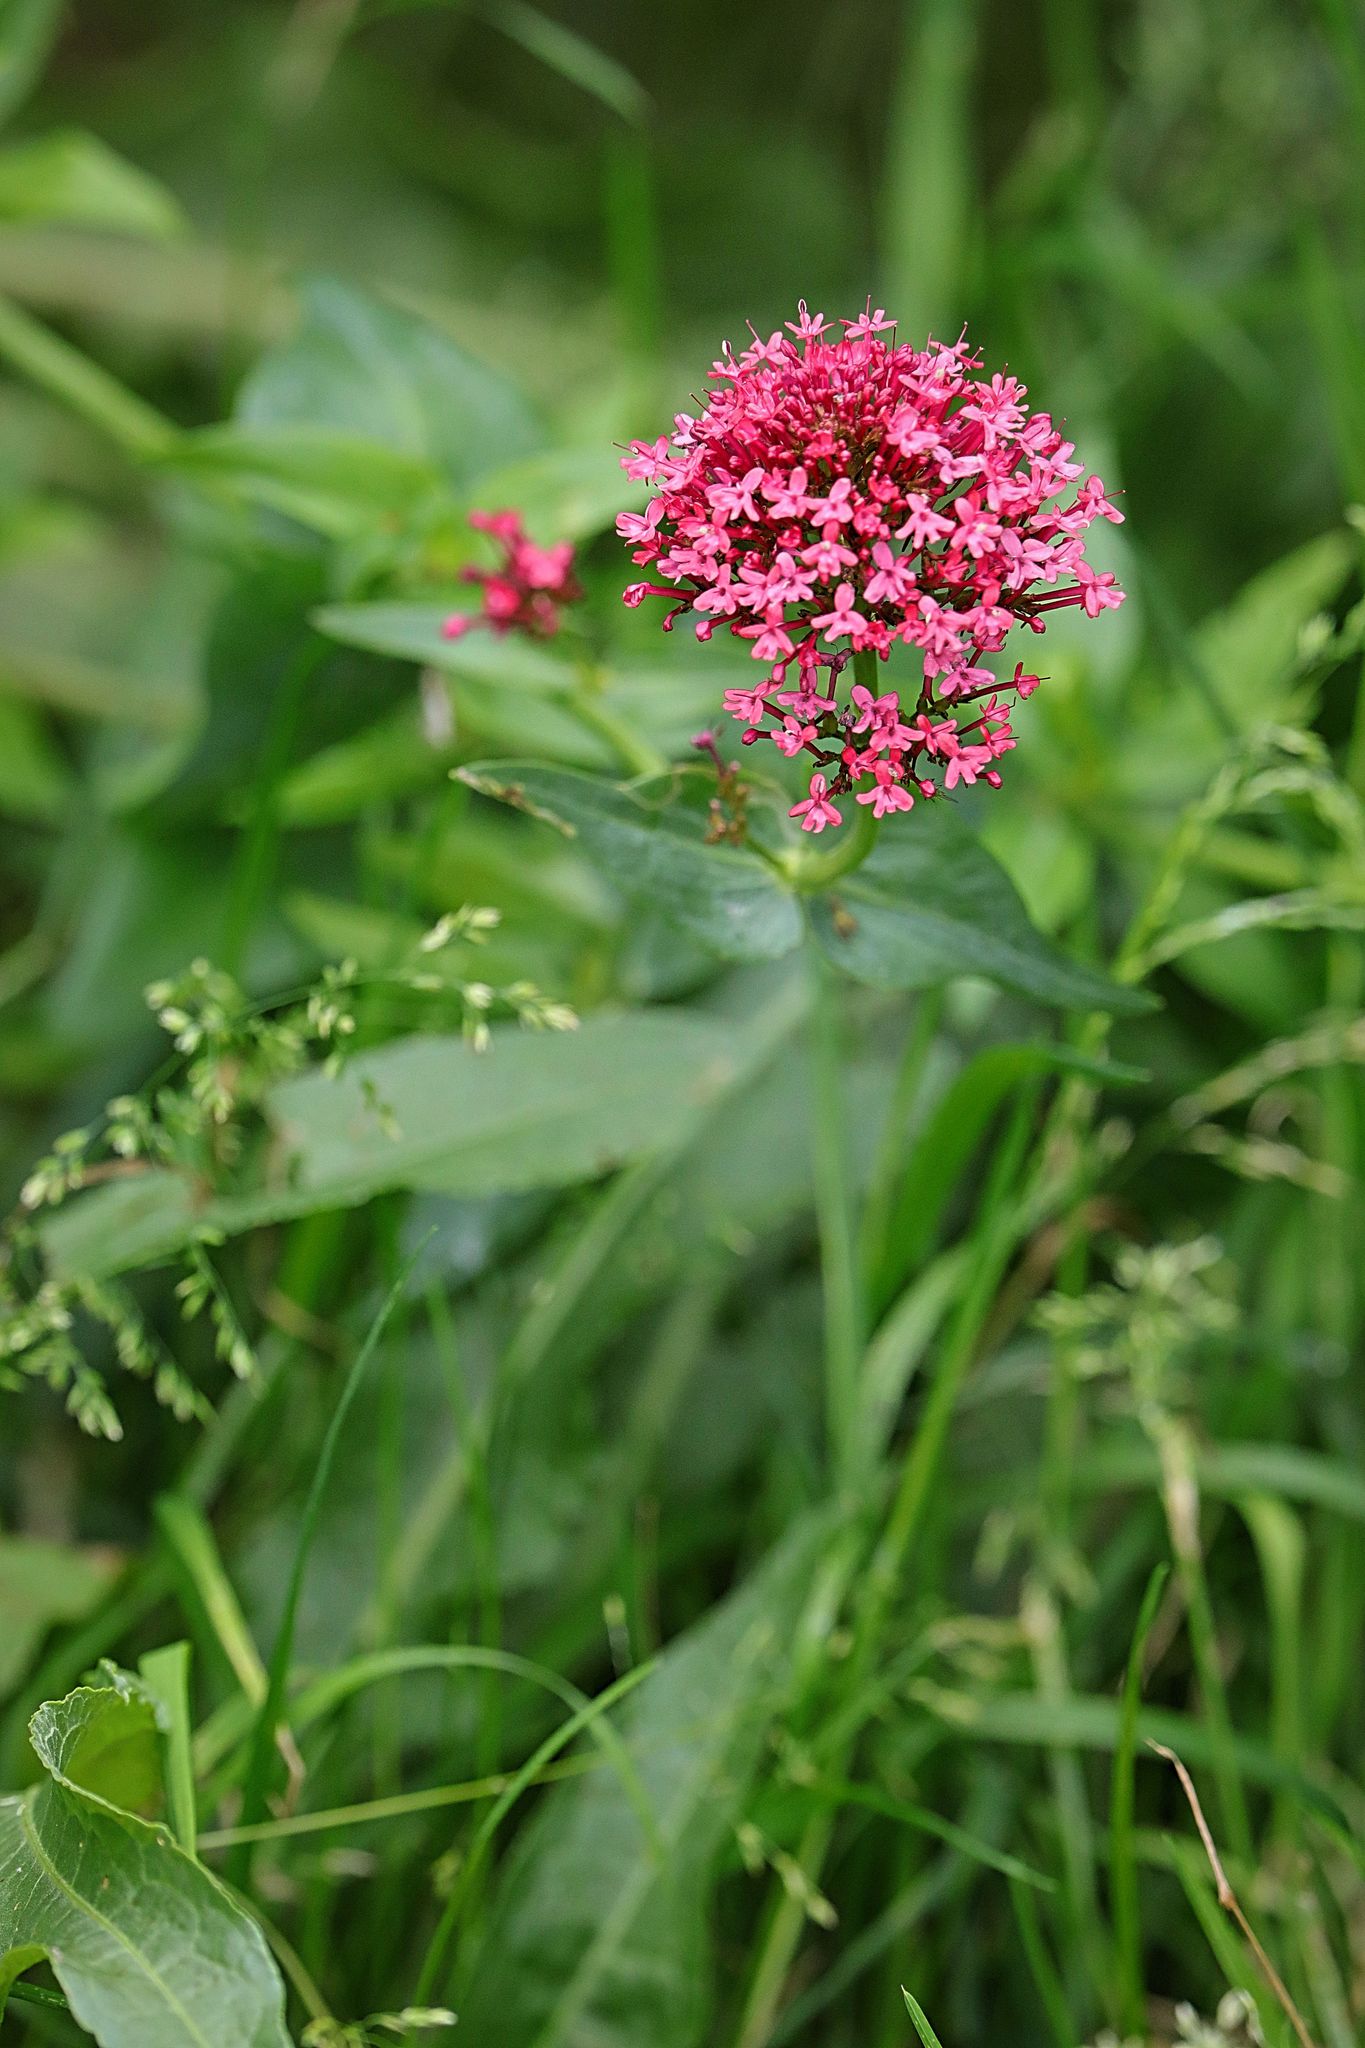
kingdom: Plantae
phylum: Tracheophyta
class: Magnoliopsida
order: Dipsacales
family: Caprifoliaceae
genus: Centranthus
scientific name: Centranthus ruber
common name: Red valerian
